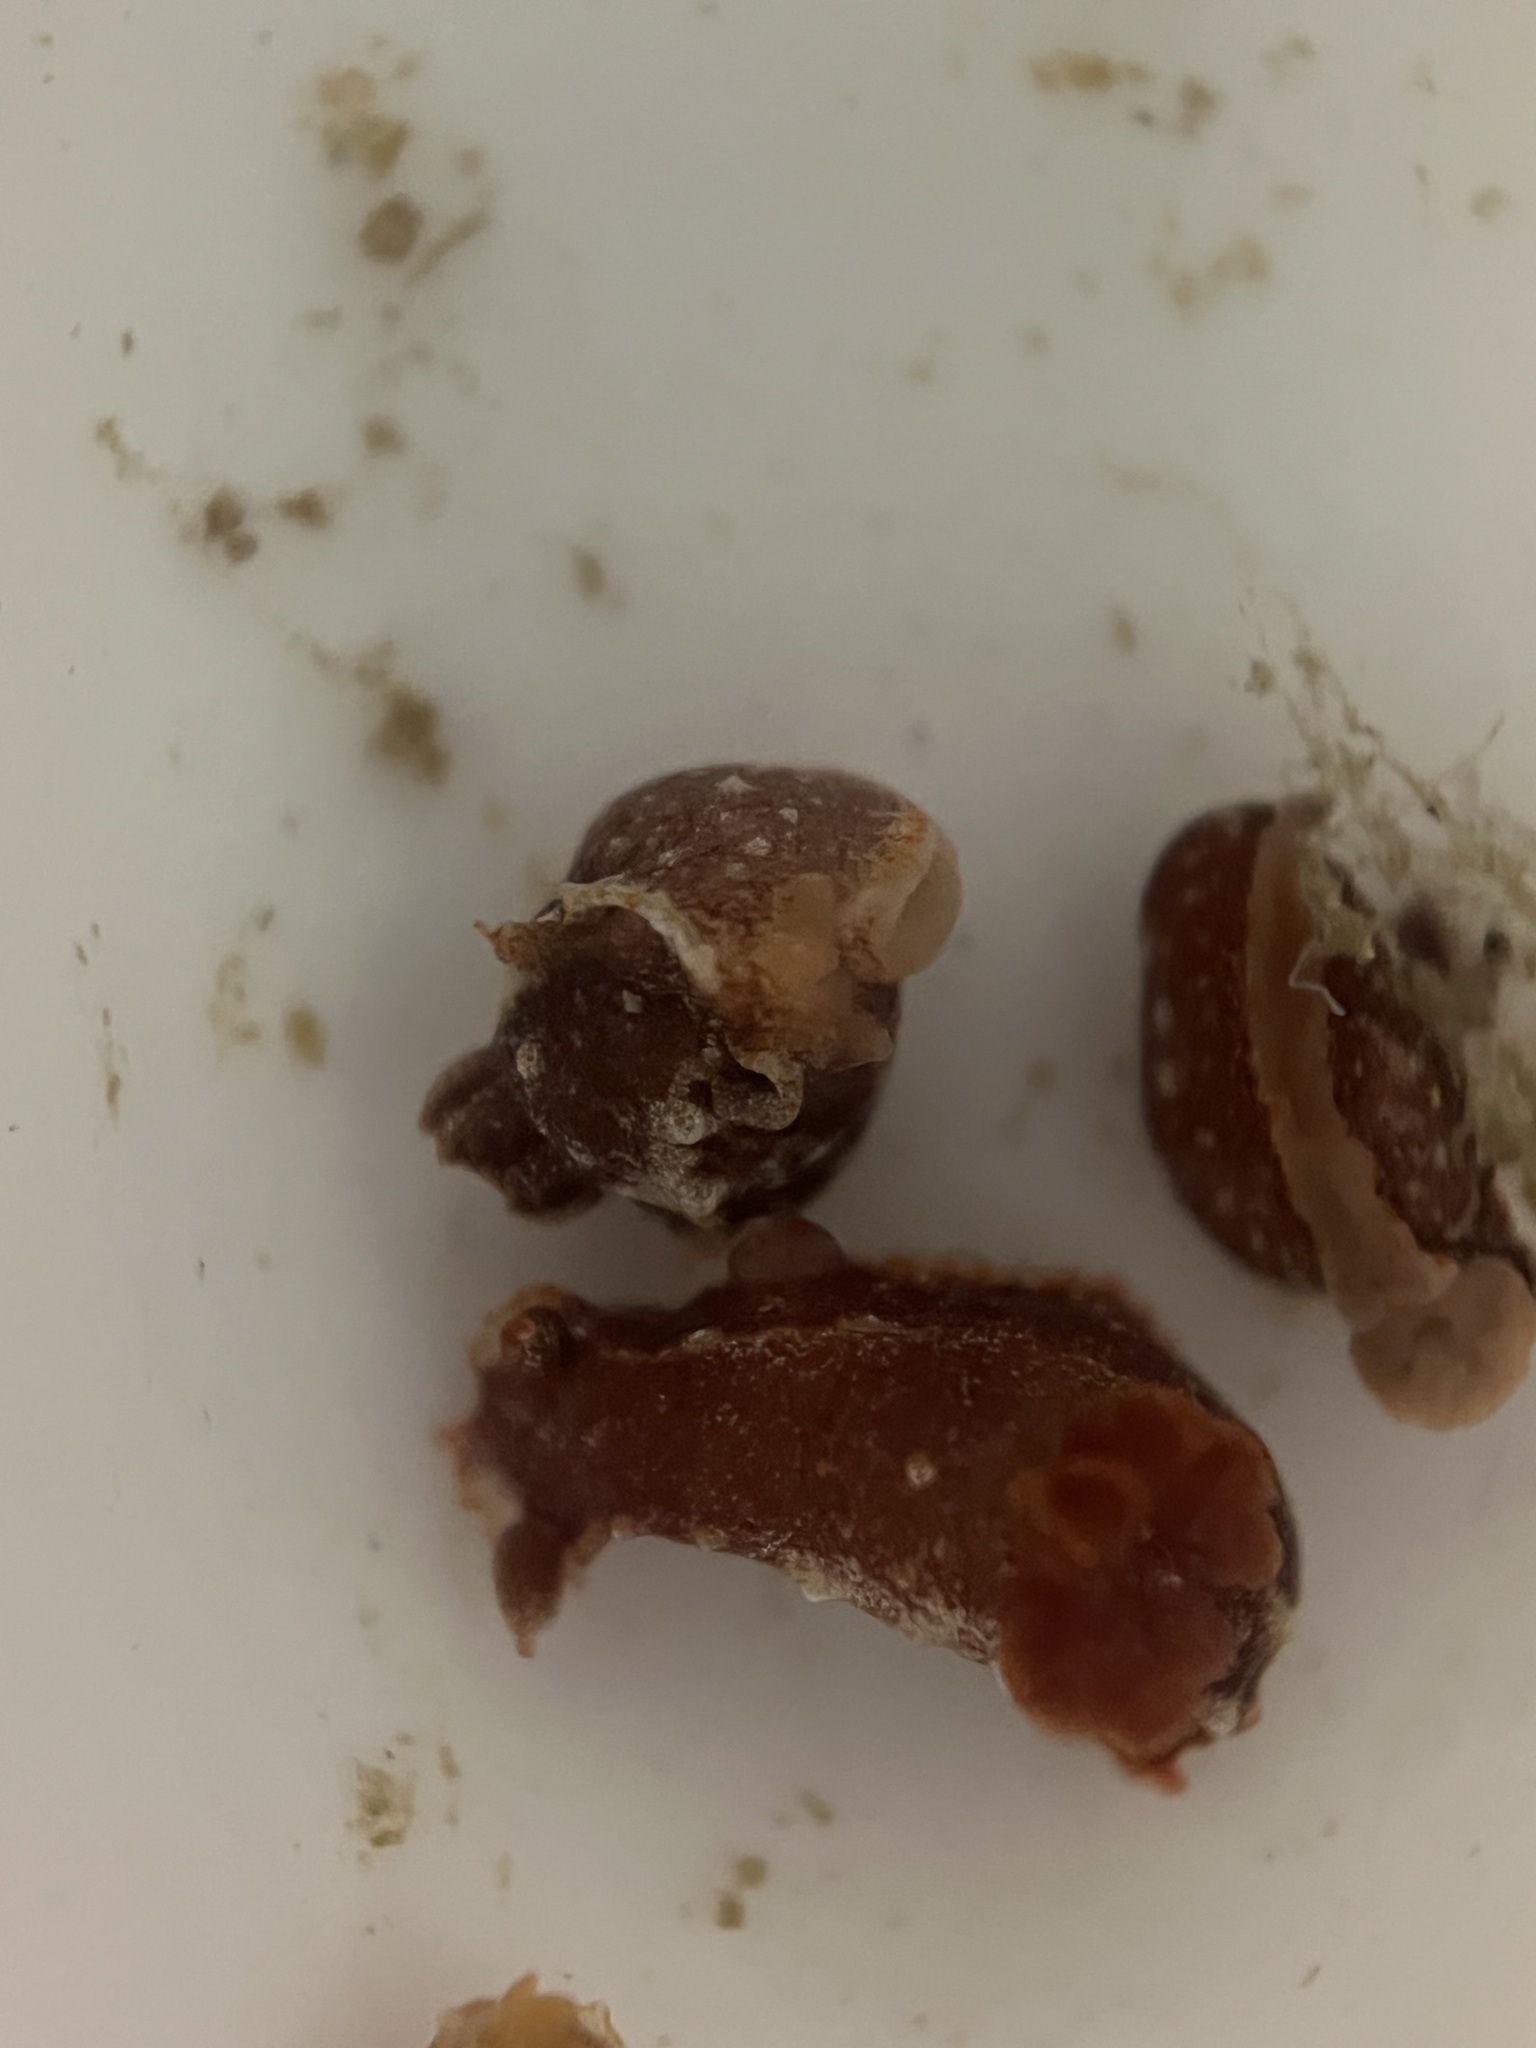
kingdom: Animalia
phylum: Mollusca
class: Gastropoda
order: Nudibranchia
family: Polyceridae
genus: Polycera
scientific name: Polycera parvula
